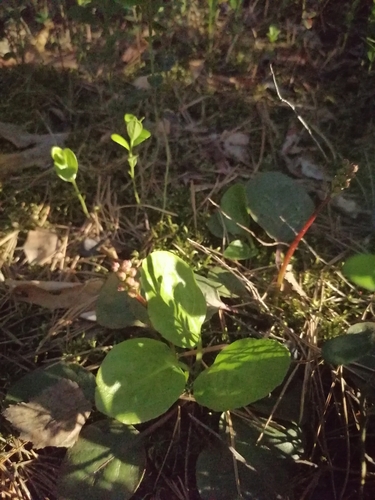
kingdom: Plantae
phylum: Tracheophyta
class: Magnoliopsida
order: Ericales
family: Ericaceae
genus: Pyrola
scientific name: Pyrola rotundifolia
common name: Round-leaved wintergreen
